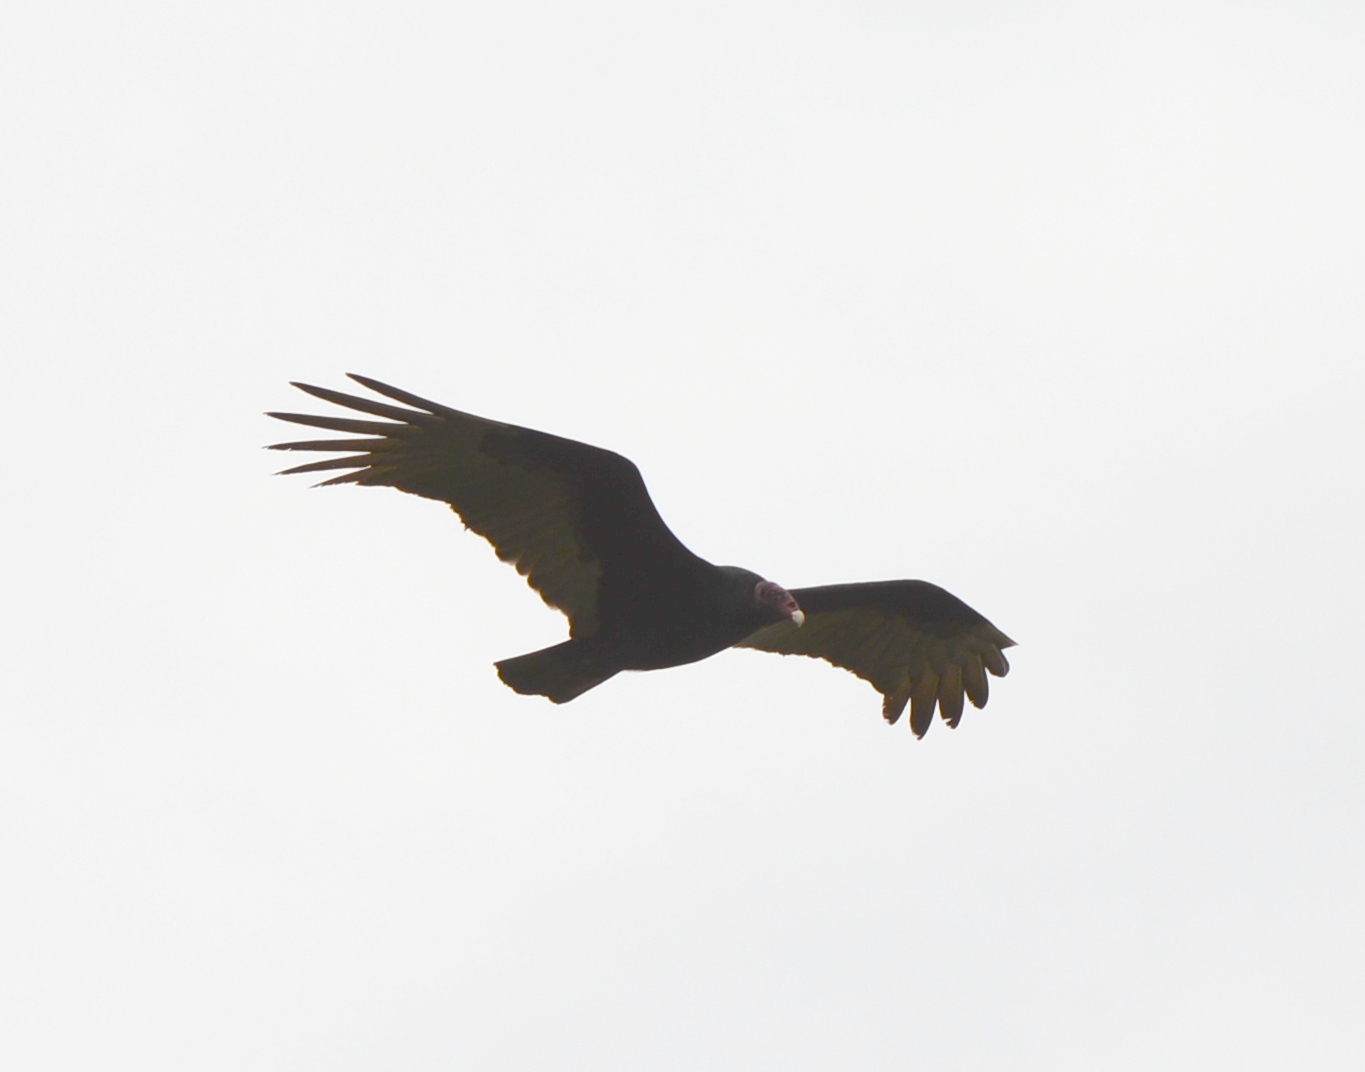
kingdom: Animalia
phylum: Chordata
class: Aves
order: Accipitriformes
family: Cathartidae
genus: Cathartes
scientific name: Cathartes aura
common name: Turkey vulture
